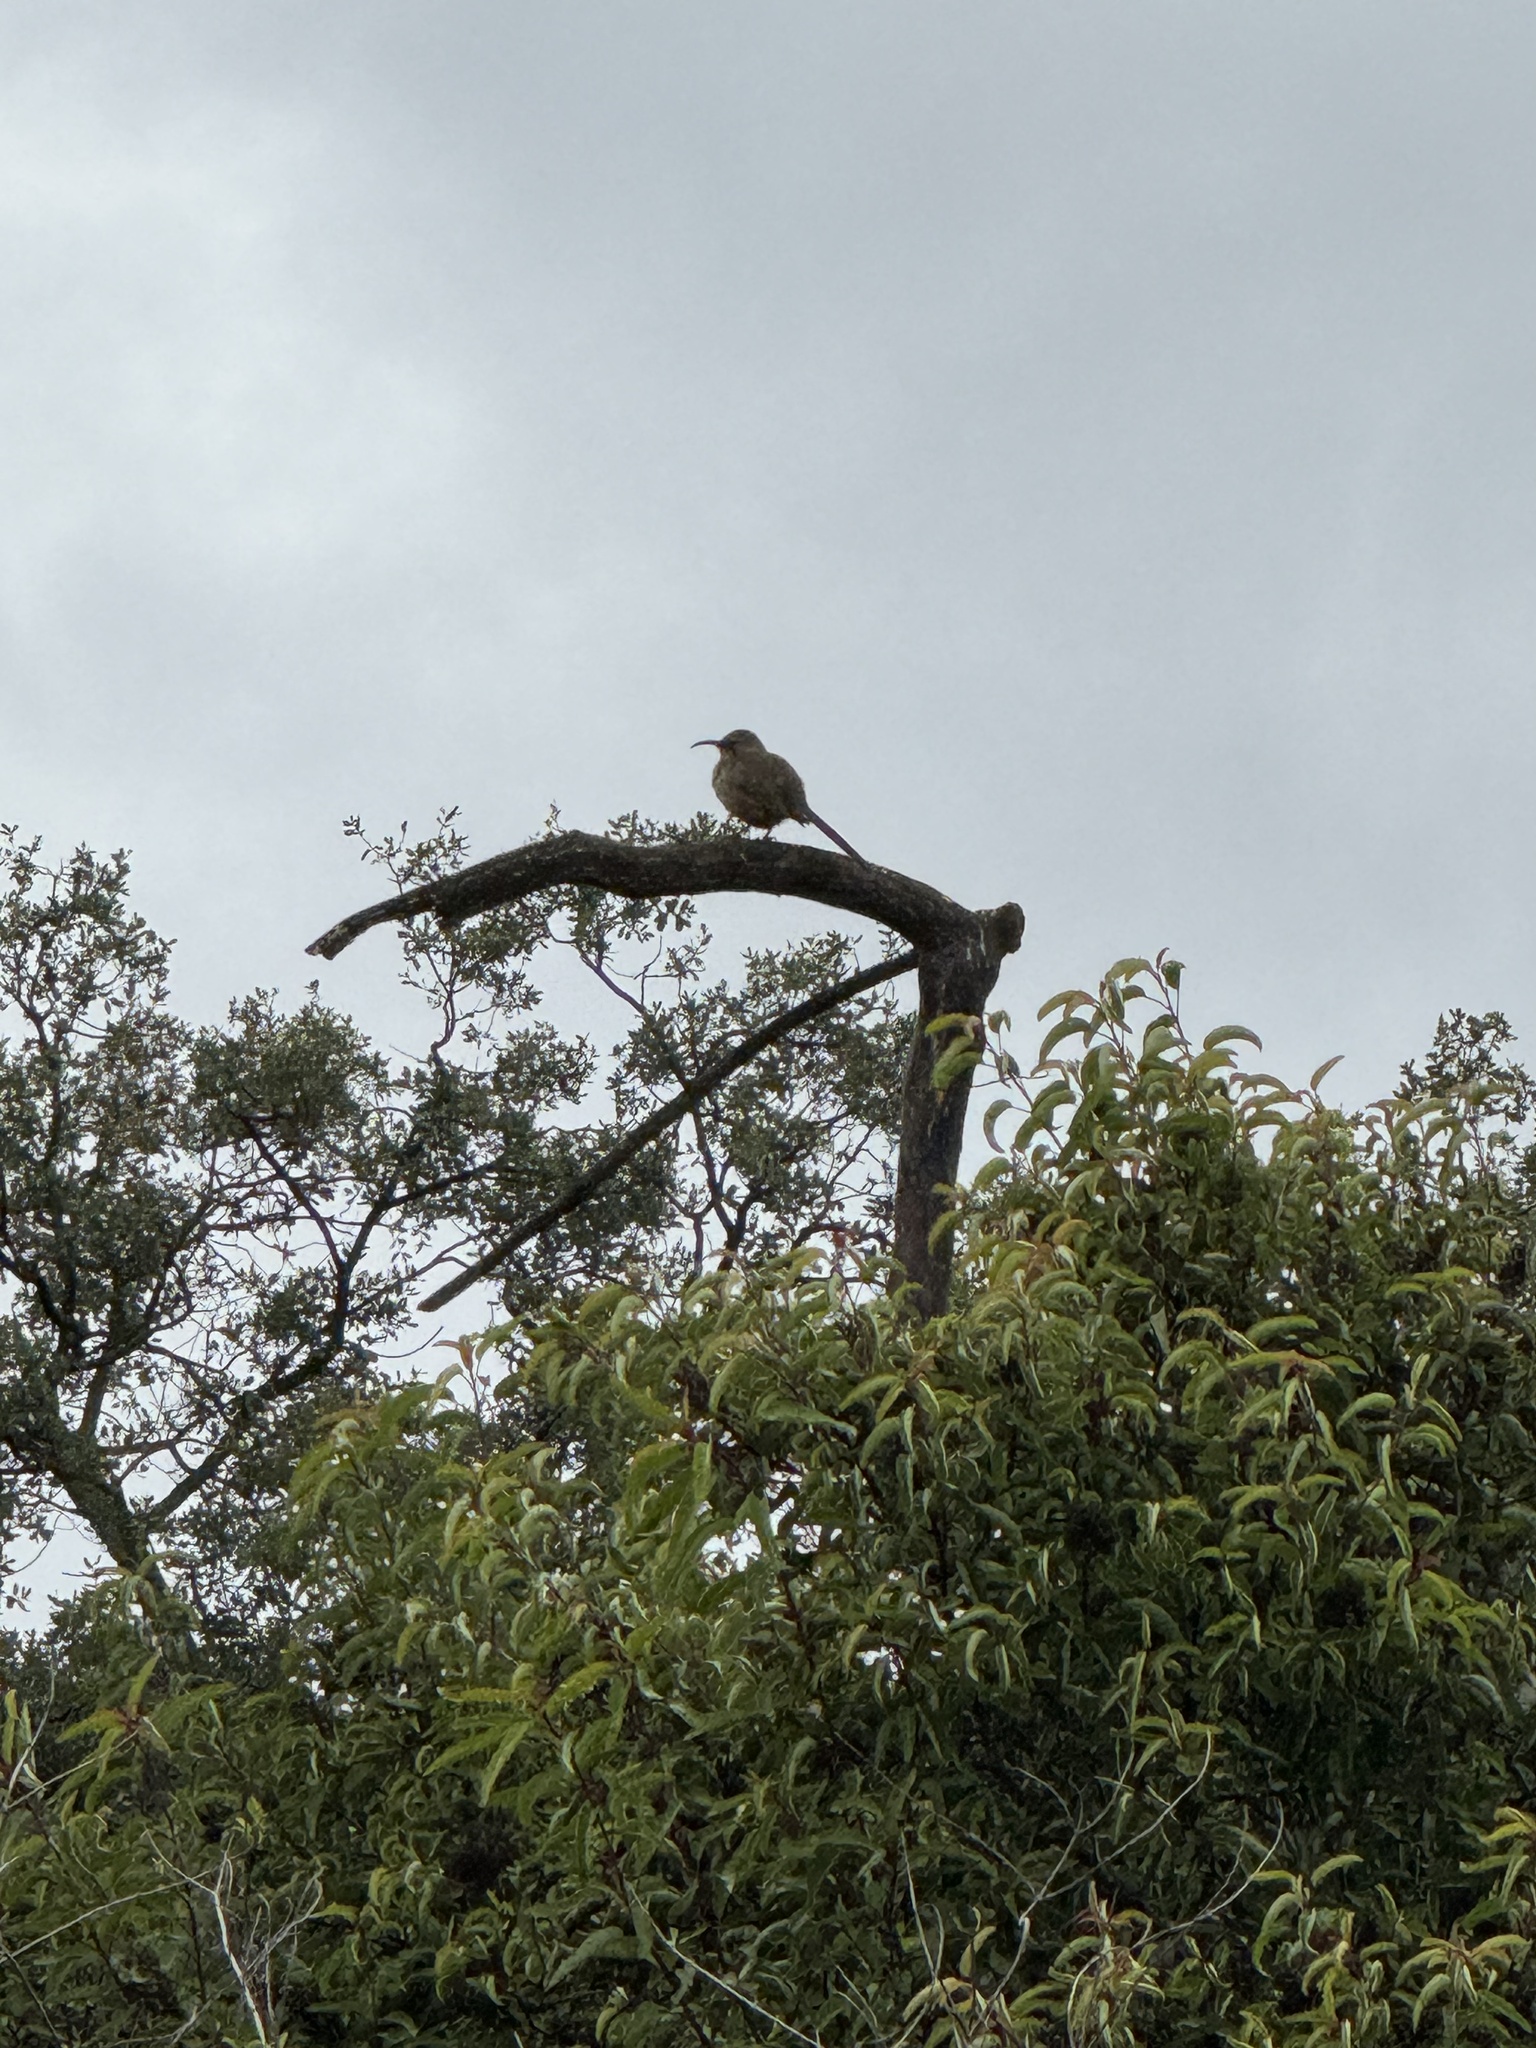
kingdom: Animalia
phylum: Chordata
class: Aves
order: Passeriformes
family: Mimidae
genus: Toxostoma
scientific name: Toxostoma redivivum
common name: California thrasher
